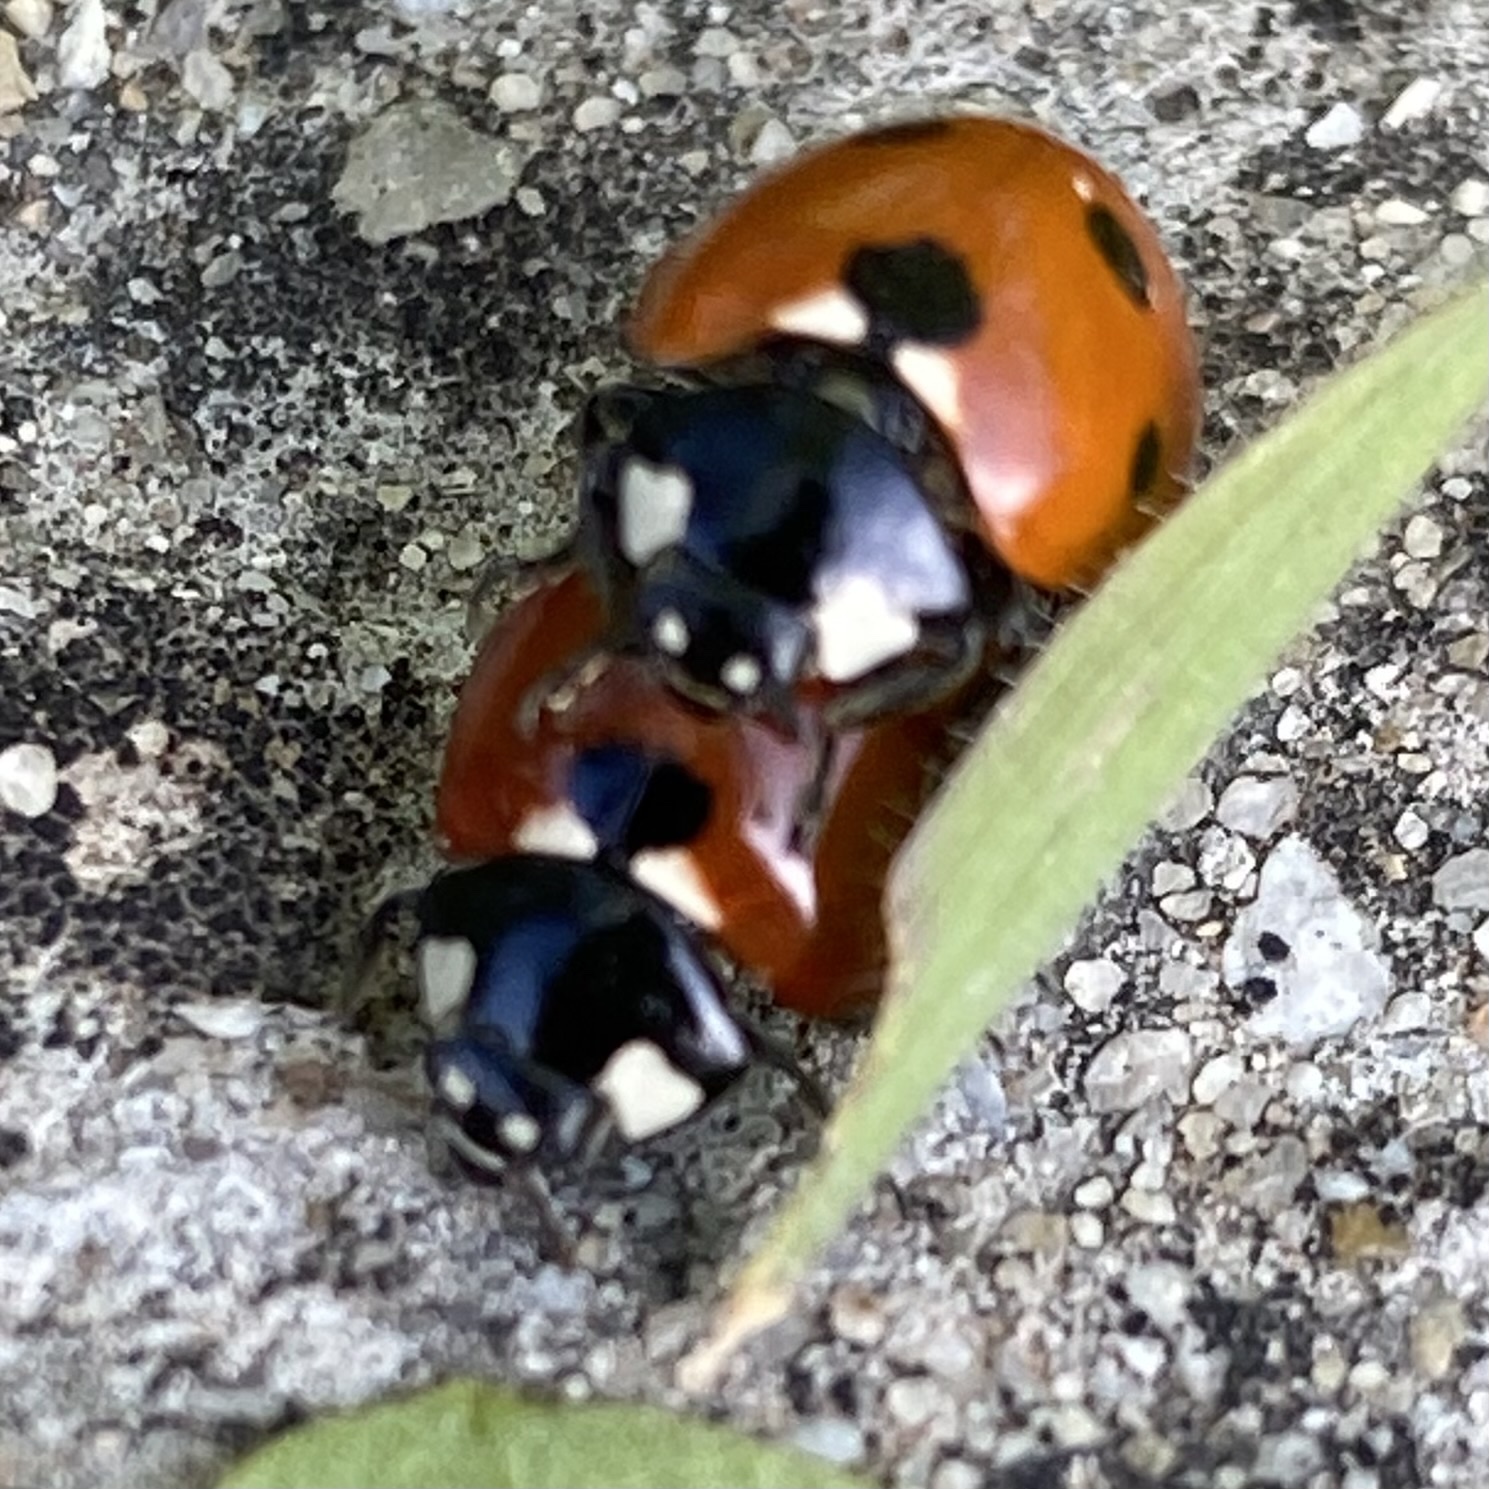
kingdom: Animalia
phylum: Arthropoda
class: Insecta
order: Coleoptera
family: Coccinellidae
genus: Coccinella
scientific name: Coccinella septempunctata
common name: Sevenspotted lady beetle
